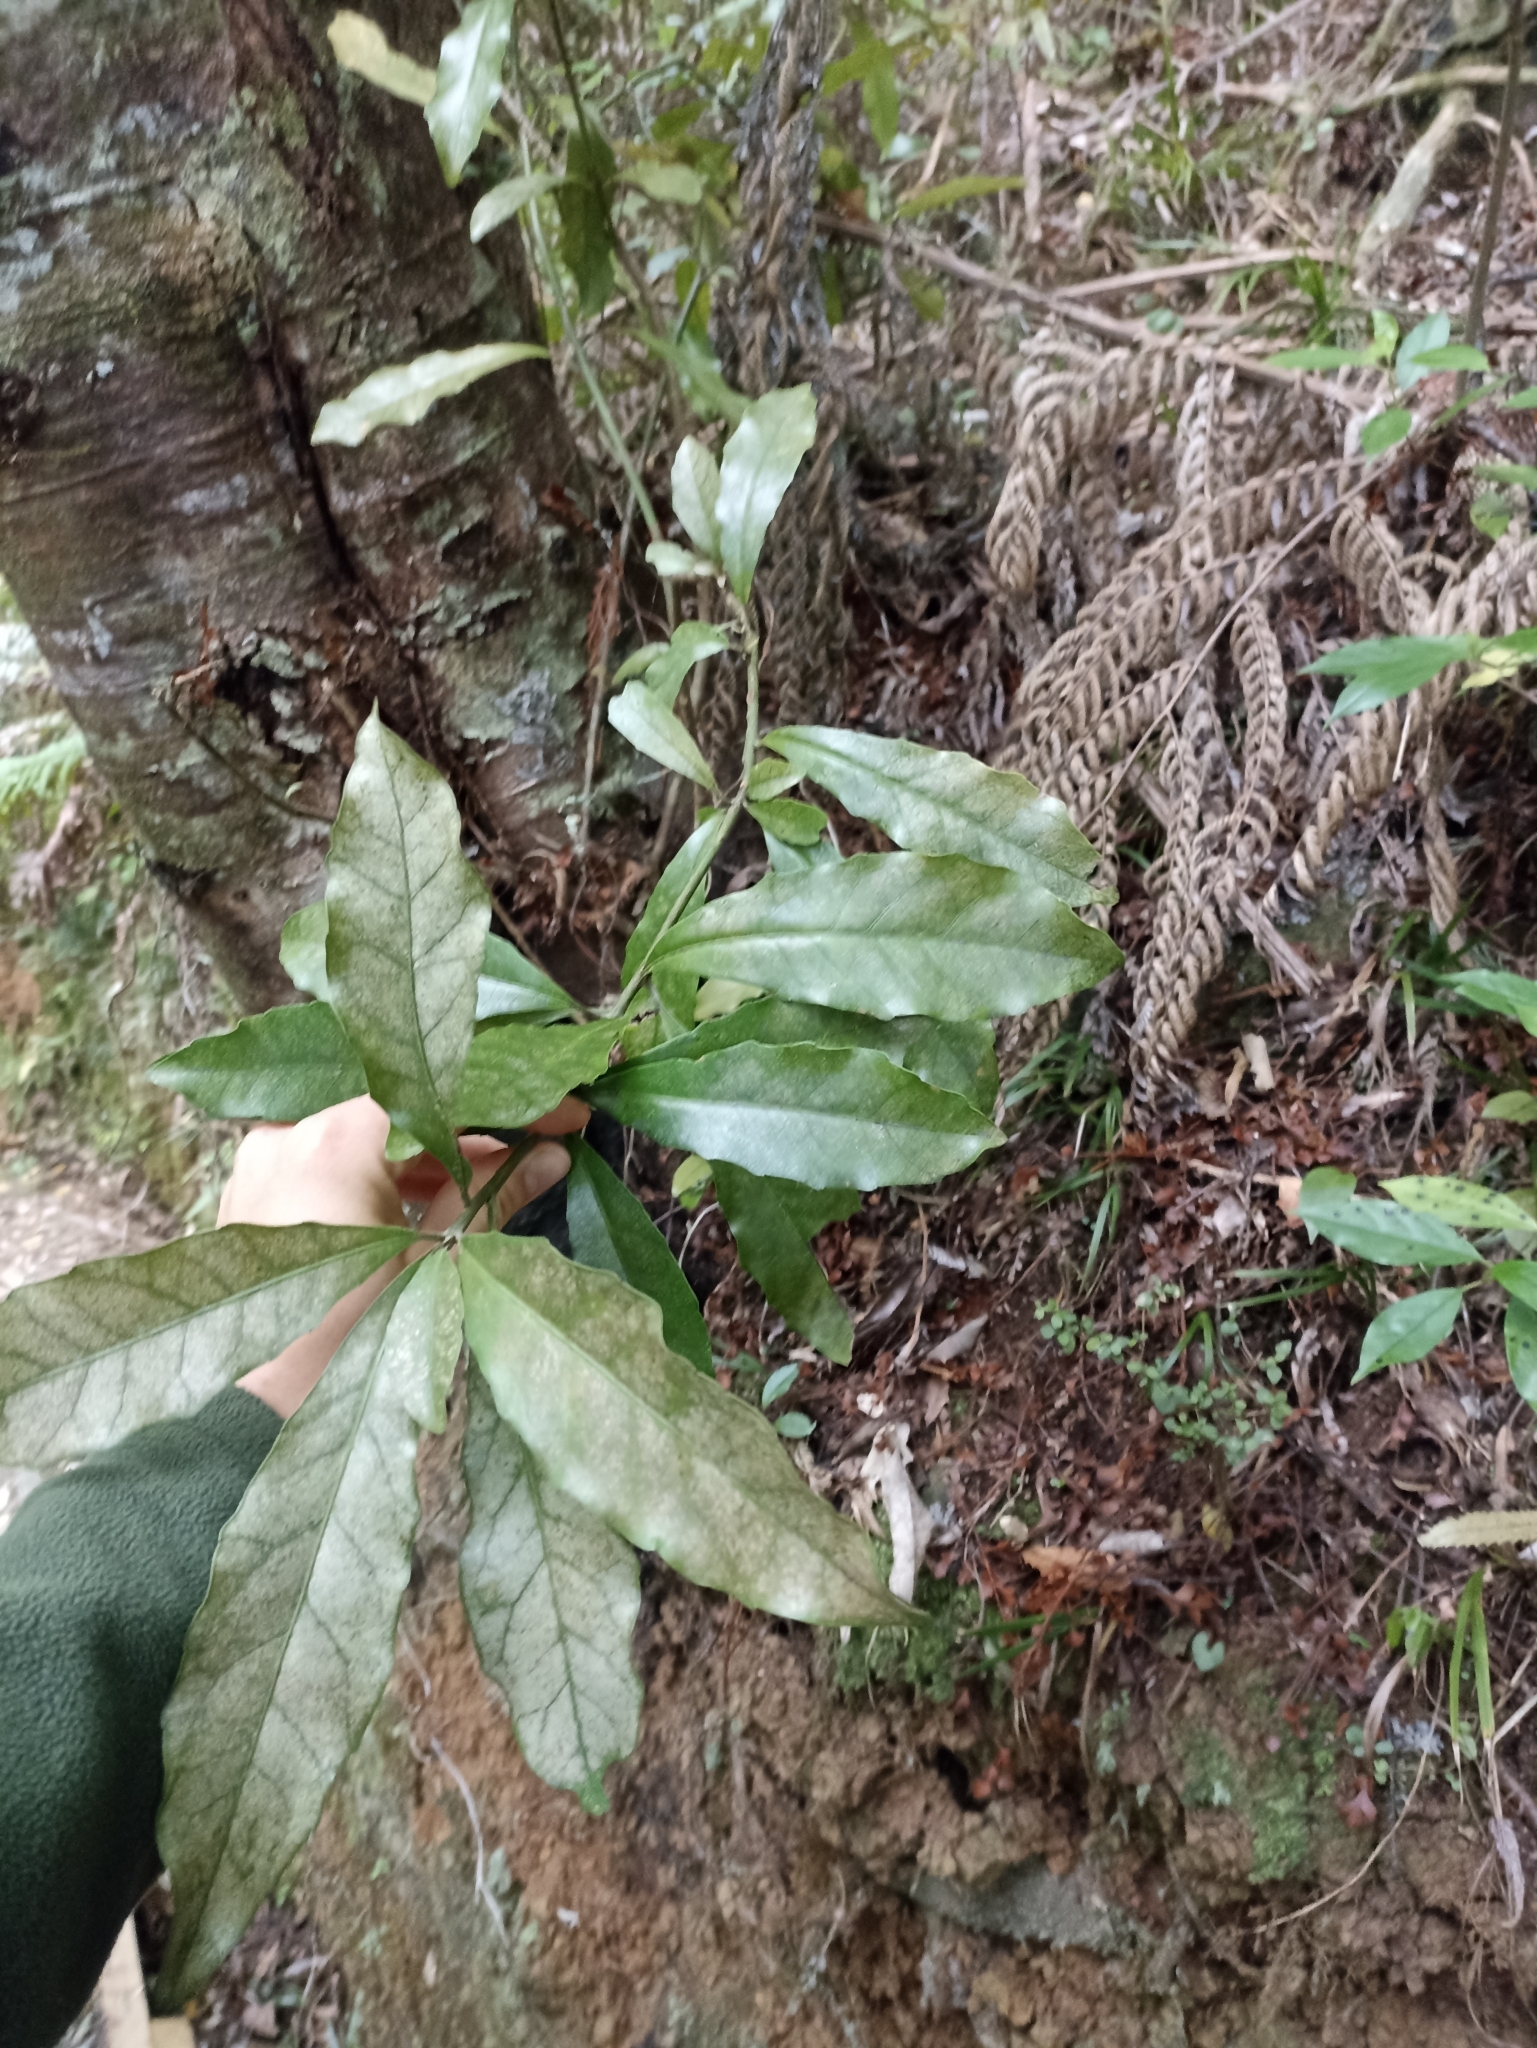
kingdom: Plantae
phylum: Tracheophyta
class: Magnoliopsida
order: Asterales
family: Alseuosmiaceae
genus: Alseuosmia
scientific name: Alseuosmia macrophylla
